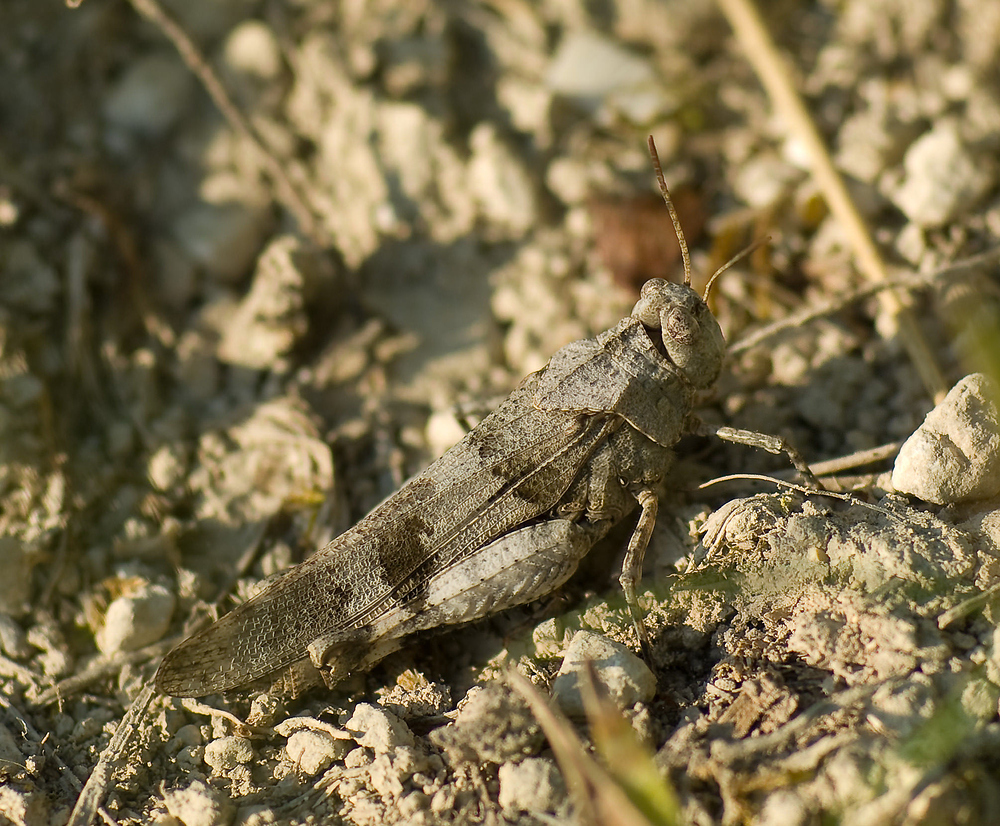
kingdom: Animalia
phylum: Arthropoda
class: Insecta
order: Orthoptera
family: Acrididae
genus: Oedipoda
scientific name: Oedipoda caerulescens
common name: Blue-winged grasshopper
